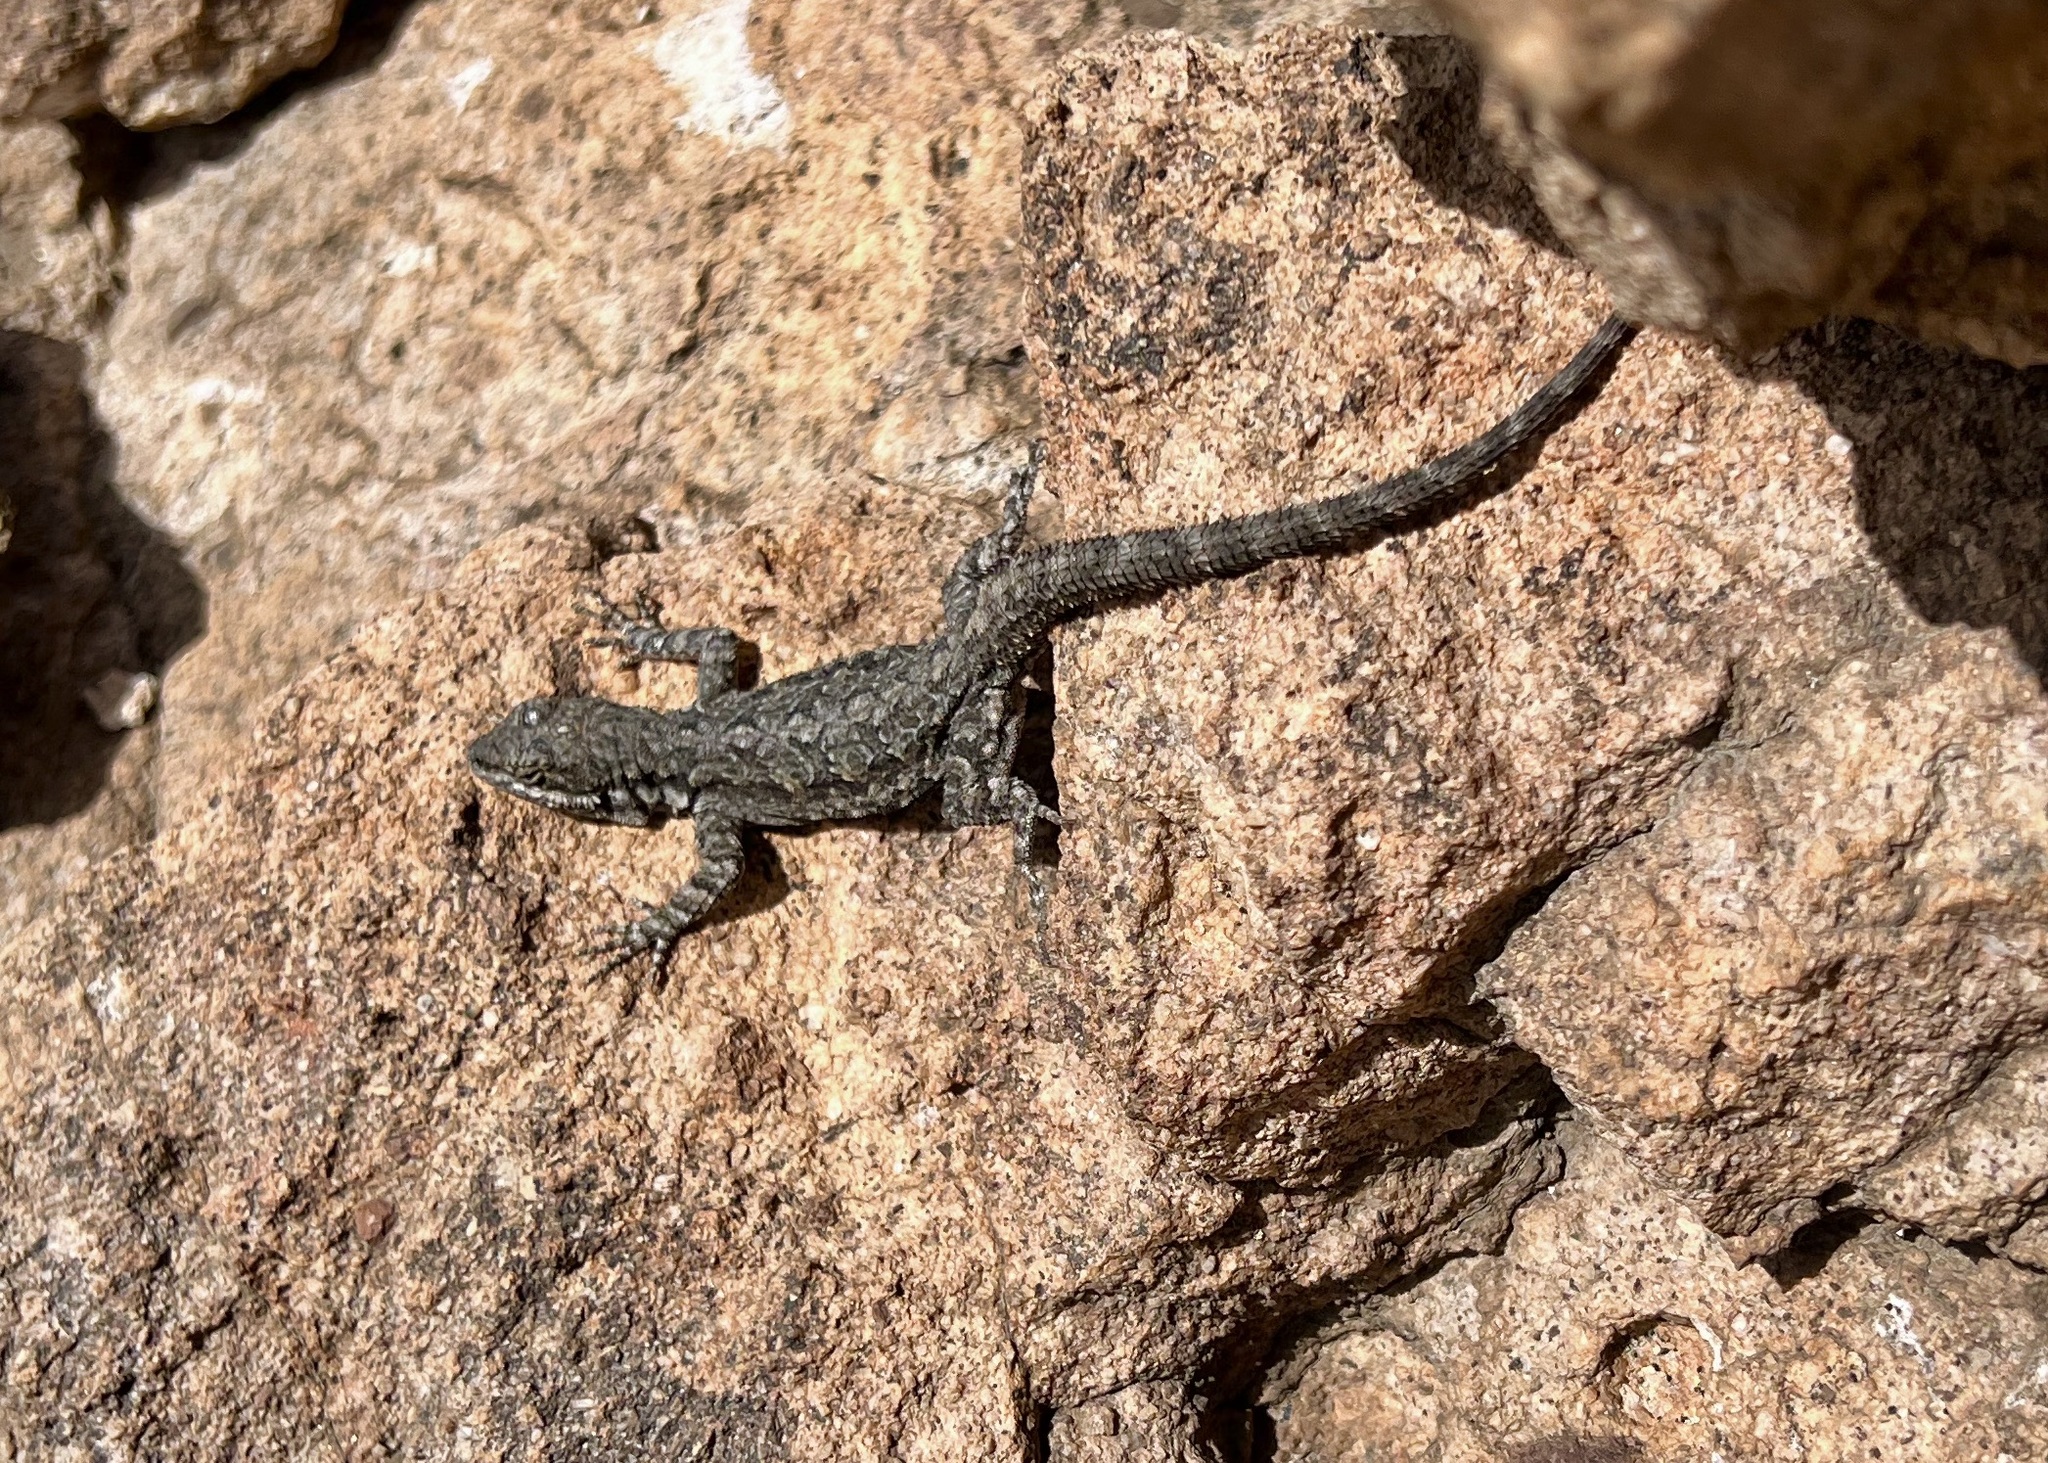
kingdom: Animalia
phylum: Chordata
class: Squamata
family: Phrynosomatidae
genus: Urosaurus
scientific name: Urosaurus ornatus
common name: Ornate tree lizard
